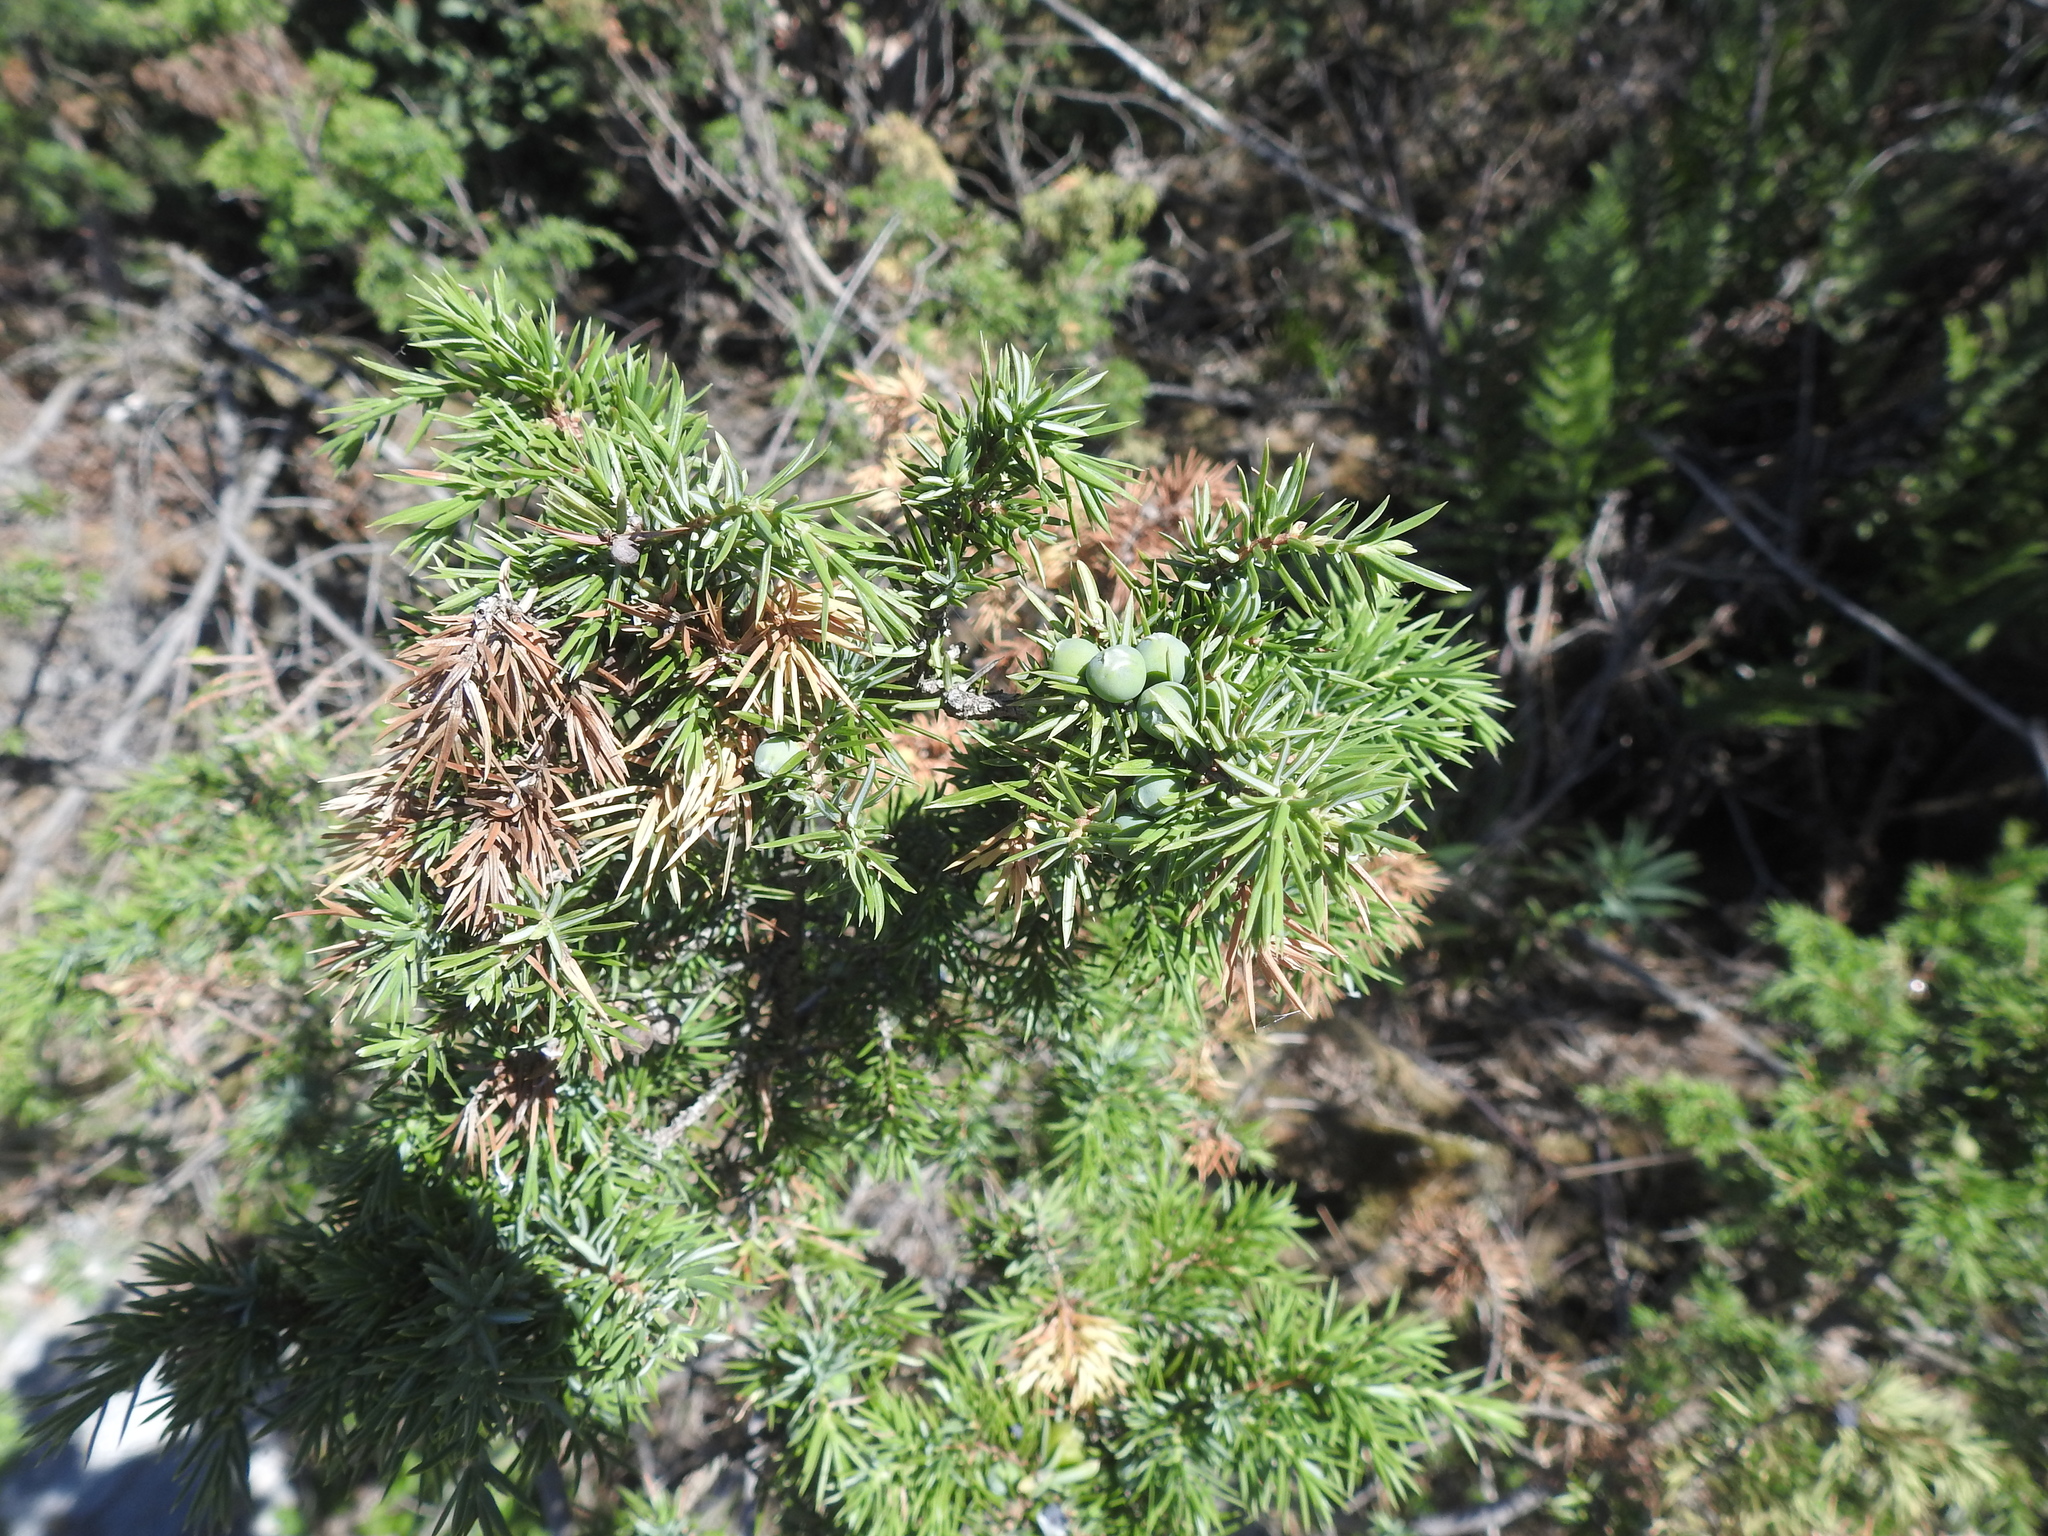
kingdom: Plantae
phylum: Tracheophyta
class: Pinopsida
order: Pinales
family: Cupressaceae
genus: Juniperus
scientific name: Juniperus communis
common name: Common juniper
